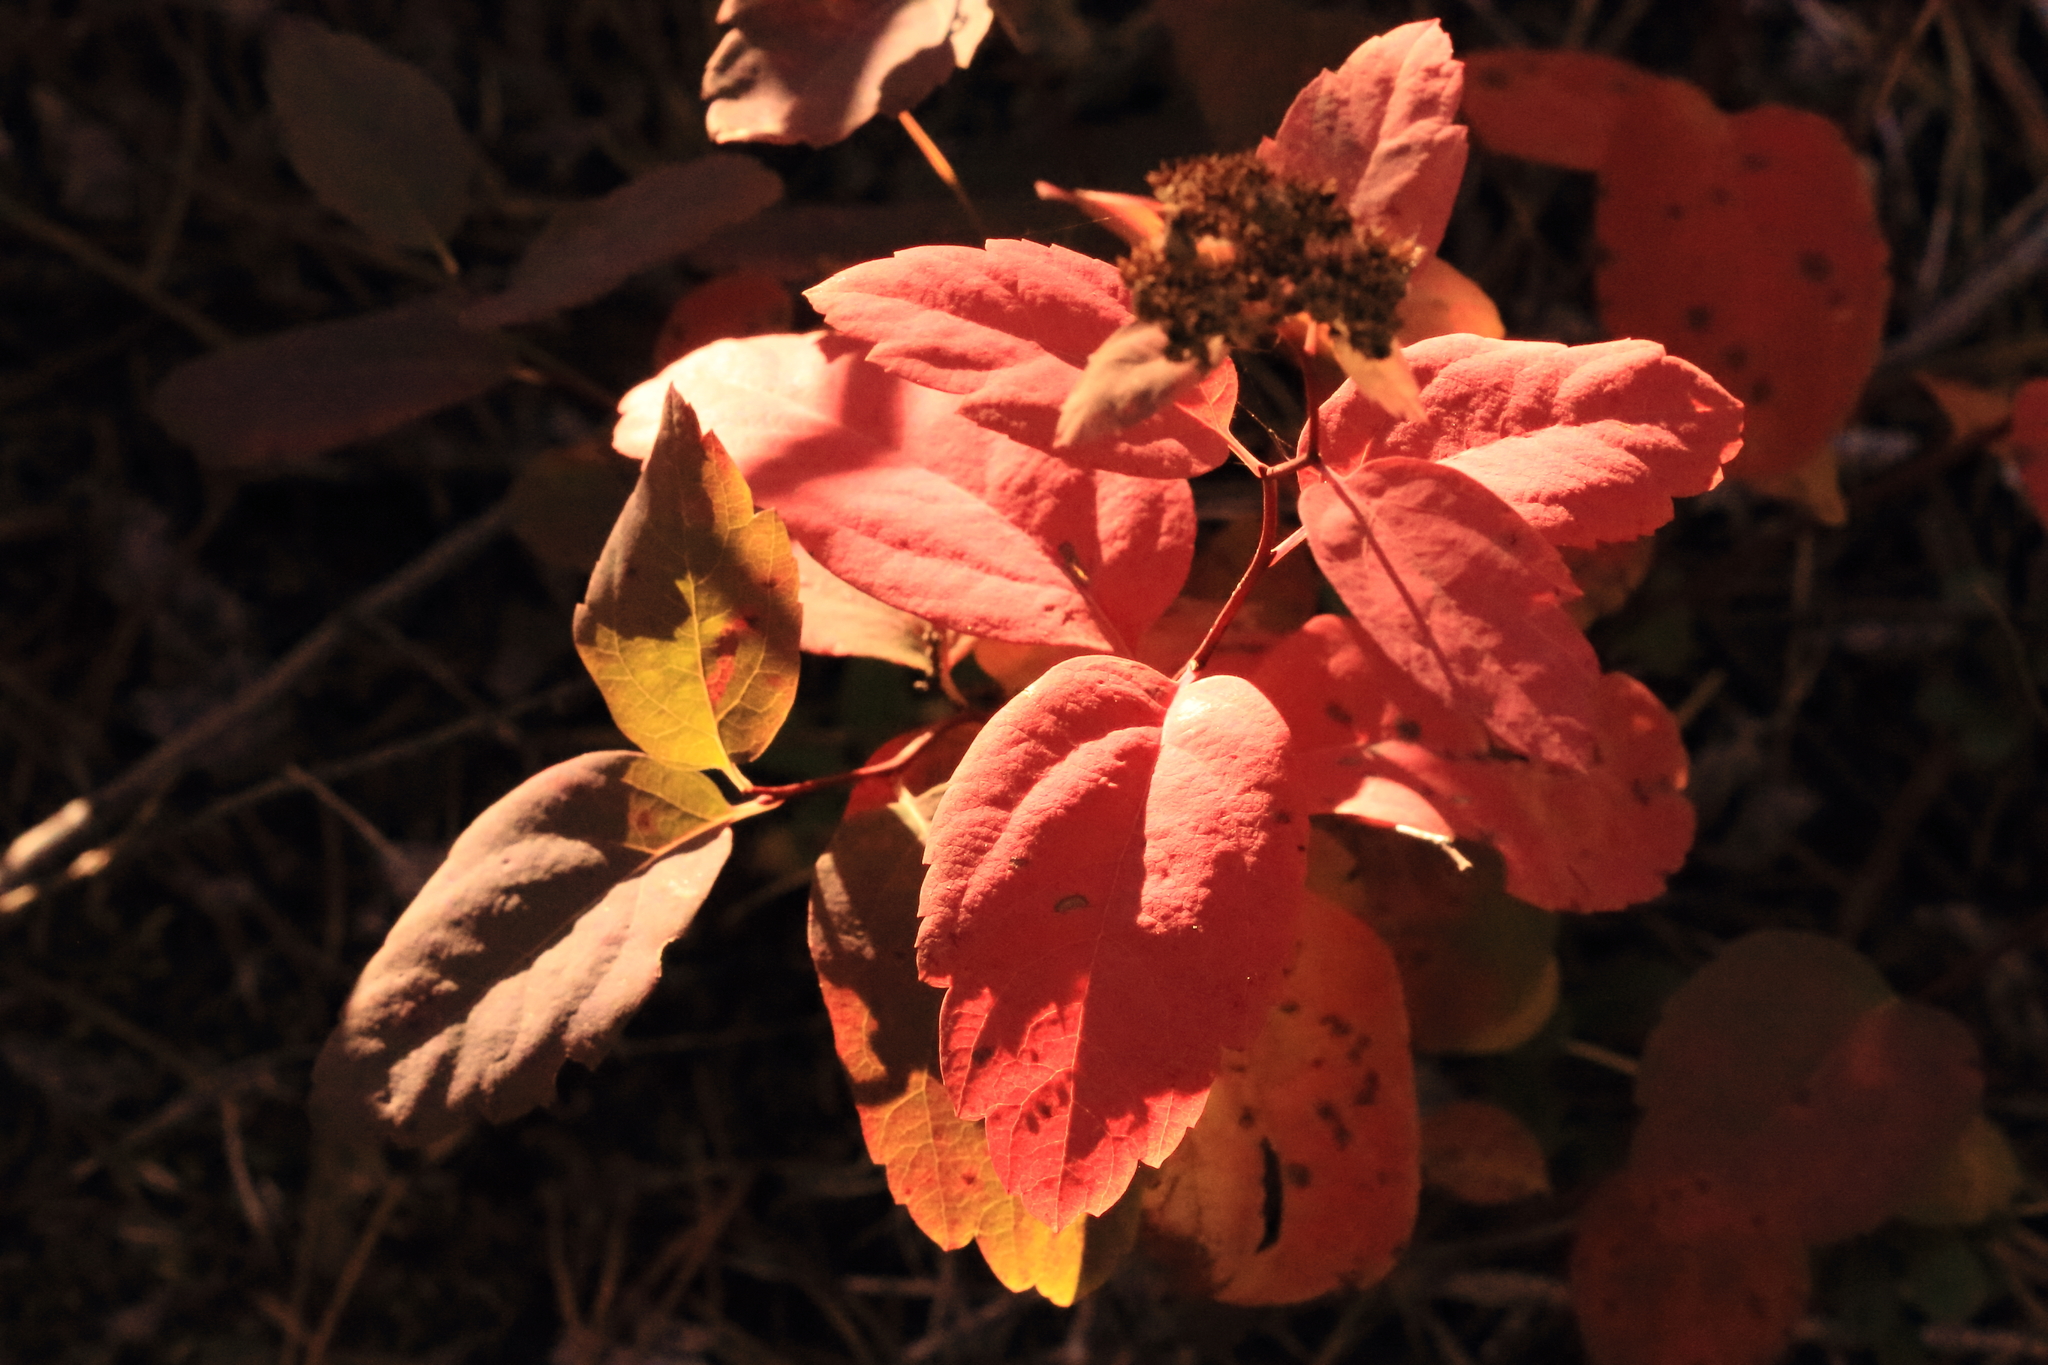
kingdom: Plantae
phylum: Tracheophyta
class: Magnoliopsida
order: Rosales
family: Rosaceae
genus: Spiraea
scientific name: Spiraea lucida
